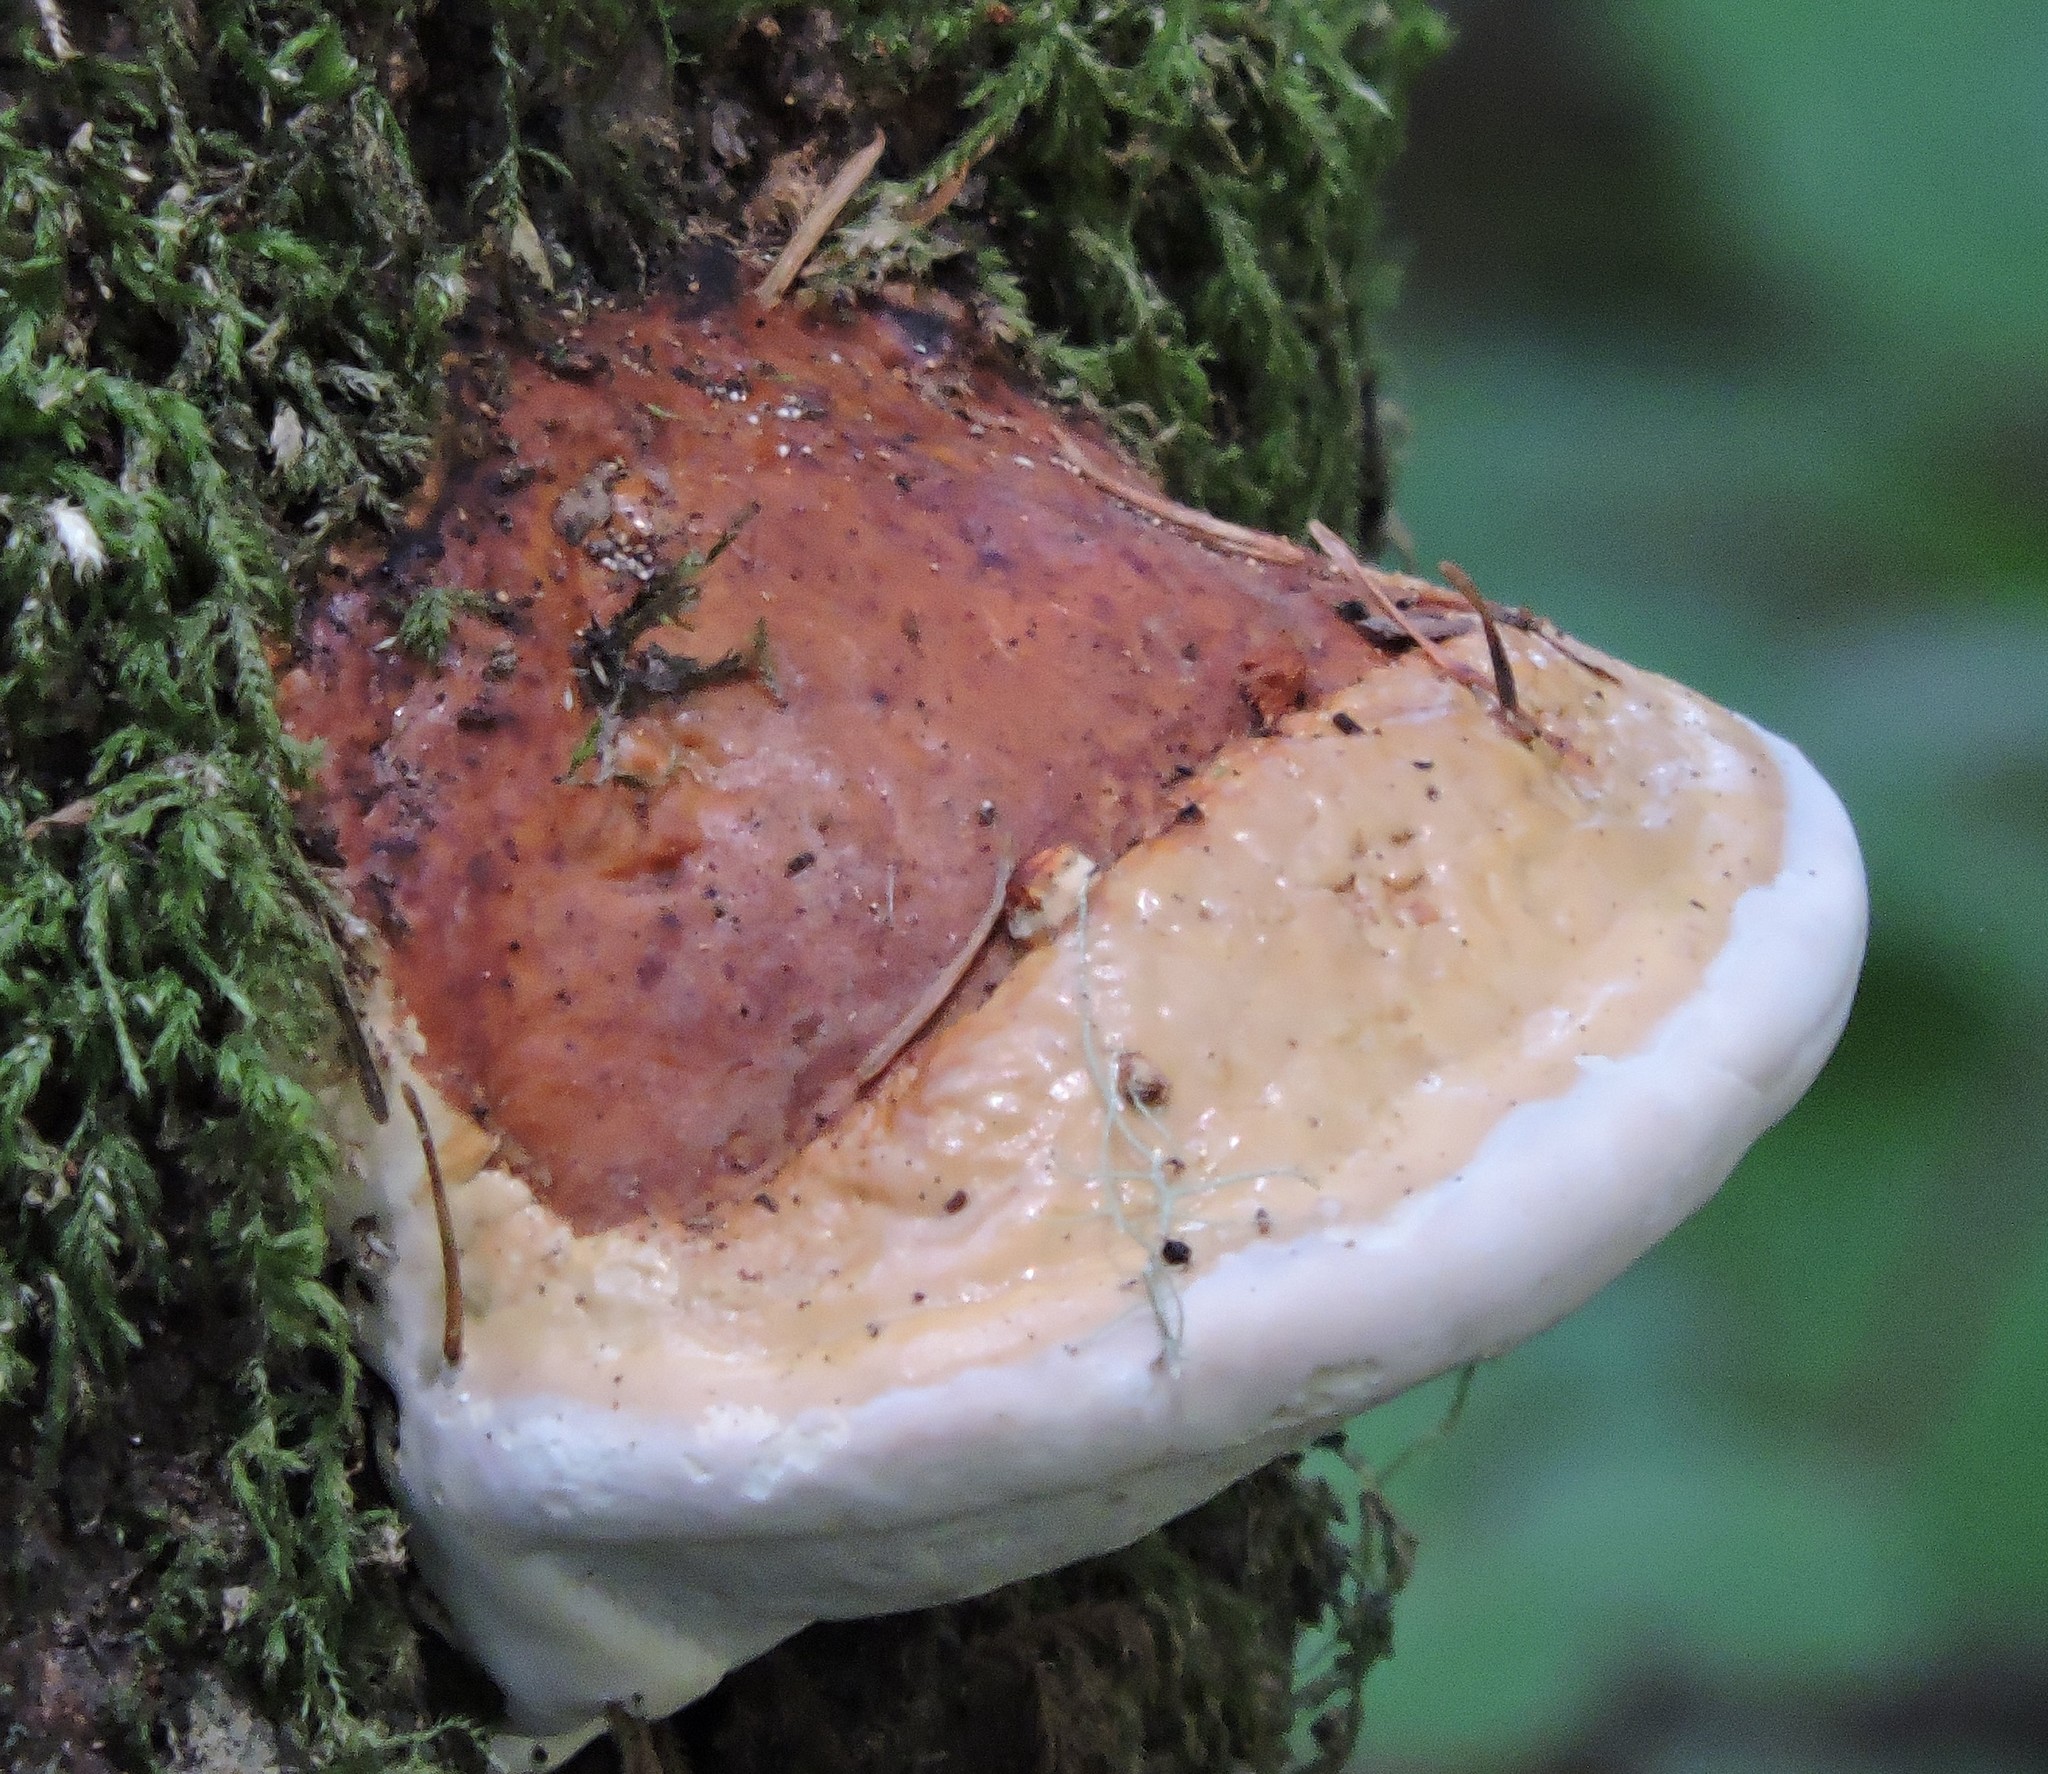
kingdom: Fungi
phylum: Basidiomycota
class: Agaricomycetes
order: Polyporales
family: Fomitopsidaceae
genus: Fomitopsis
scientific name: Fomitopsis mounceae
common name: Northern red belt
